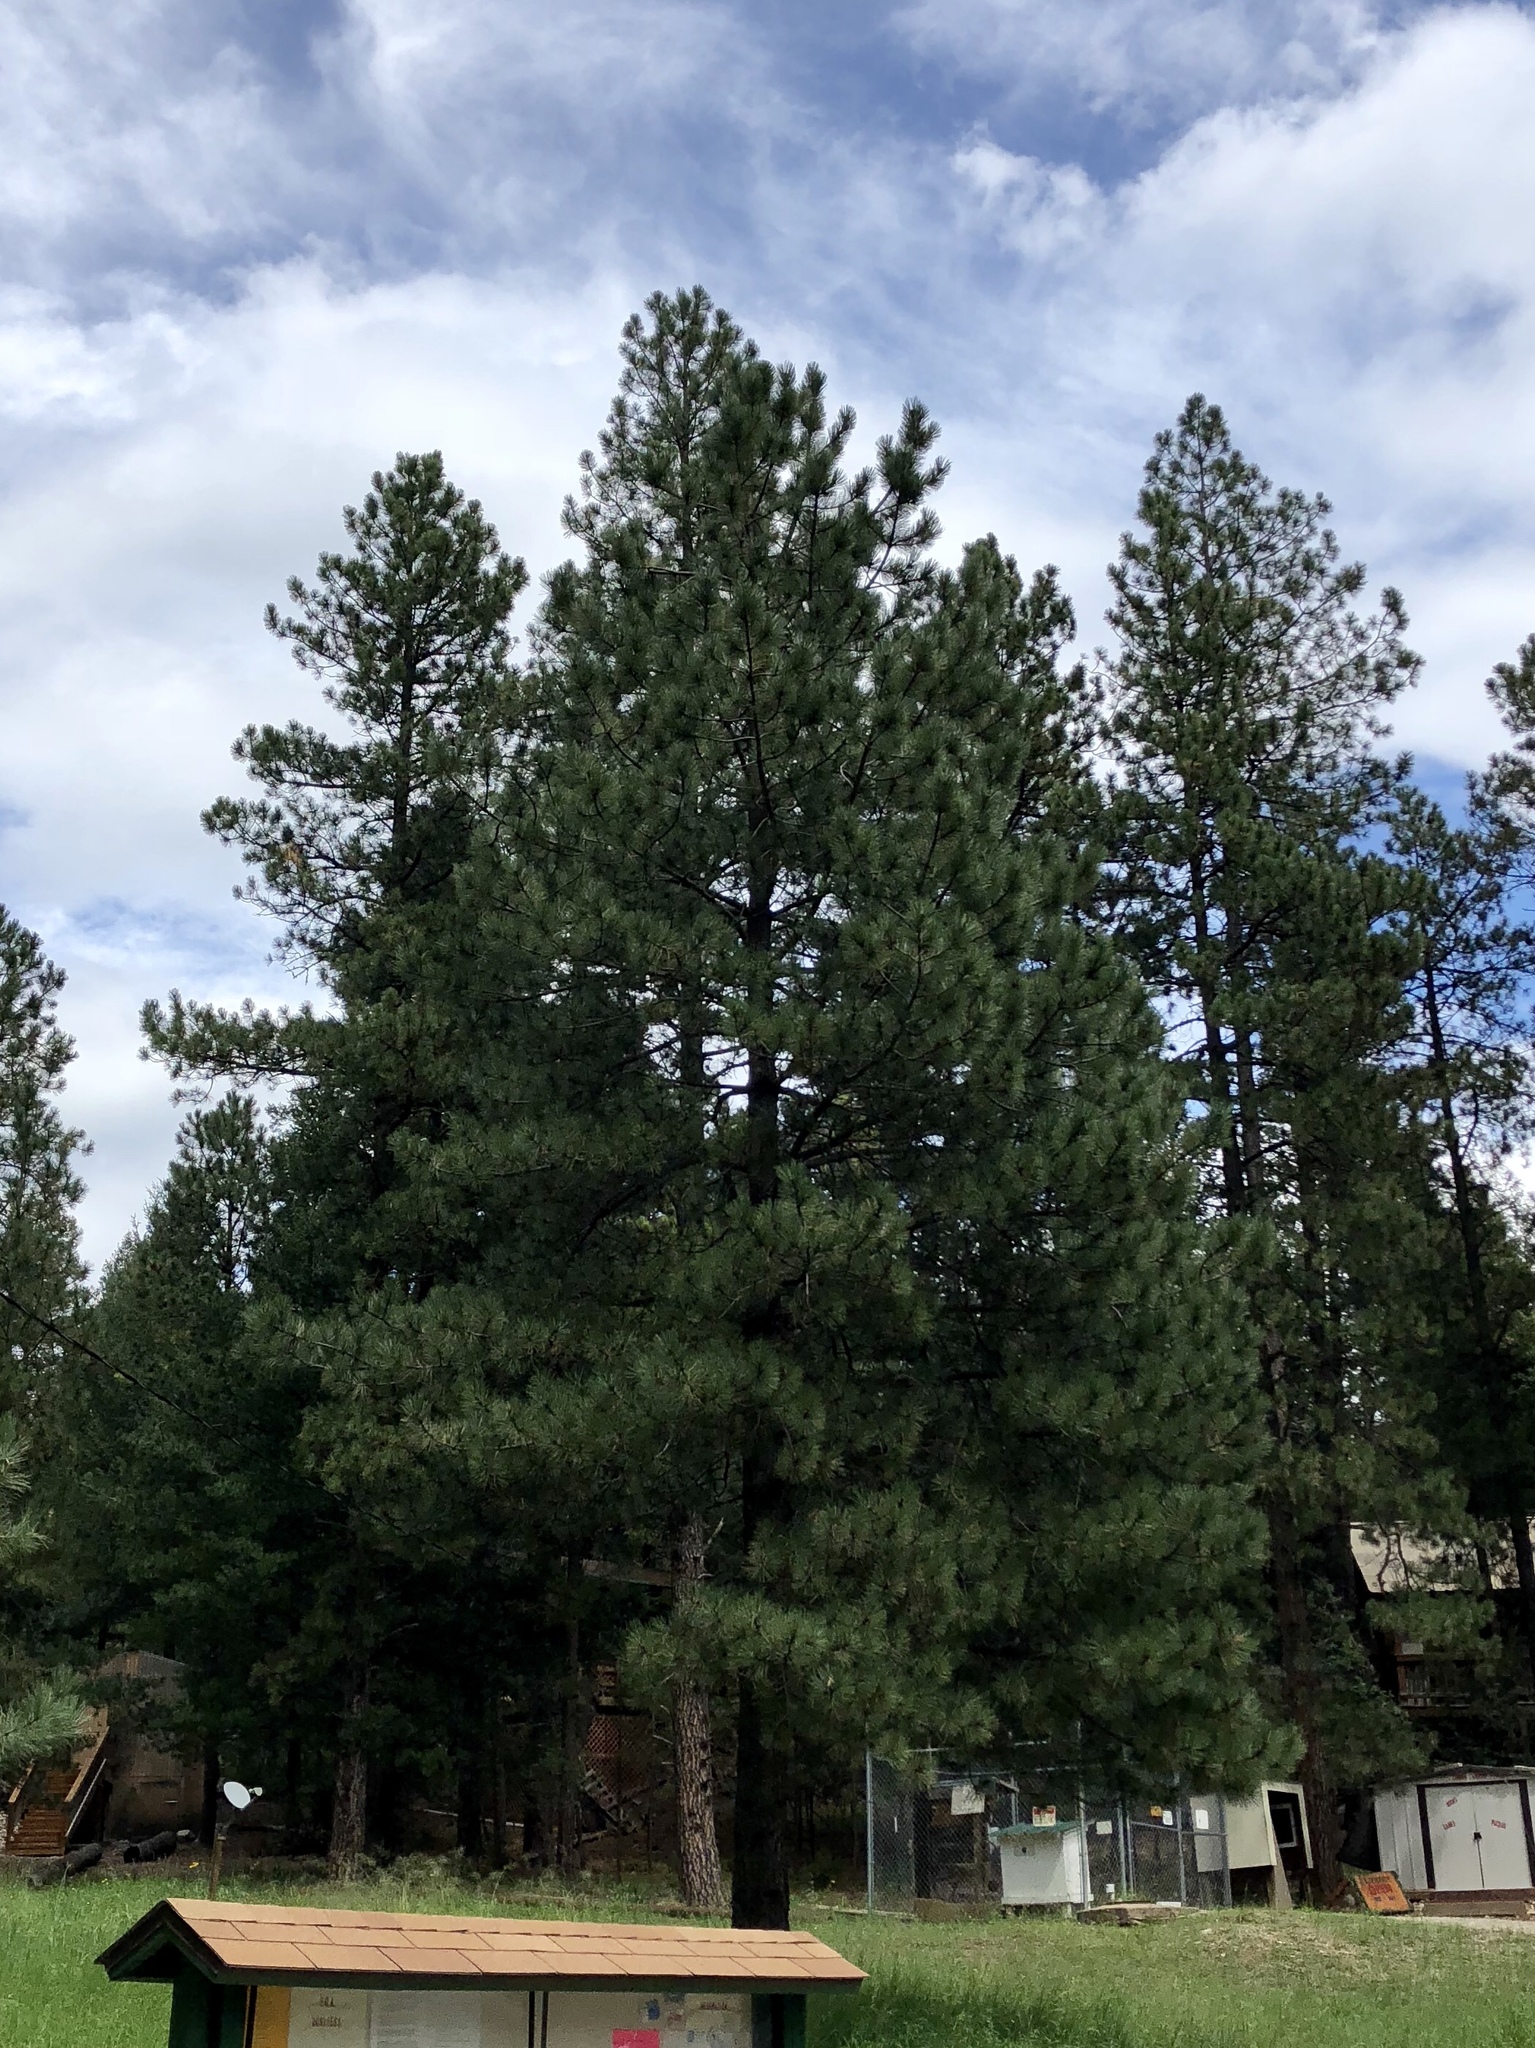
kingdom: Plantae
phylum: Tracheophyta
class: Pinopsida
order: Pinales
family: Pinaceae
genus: Pinus
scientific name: Pinus ponderosa
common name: Western yellow-pine
